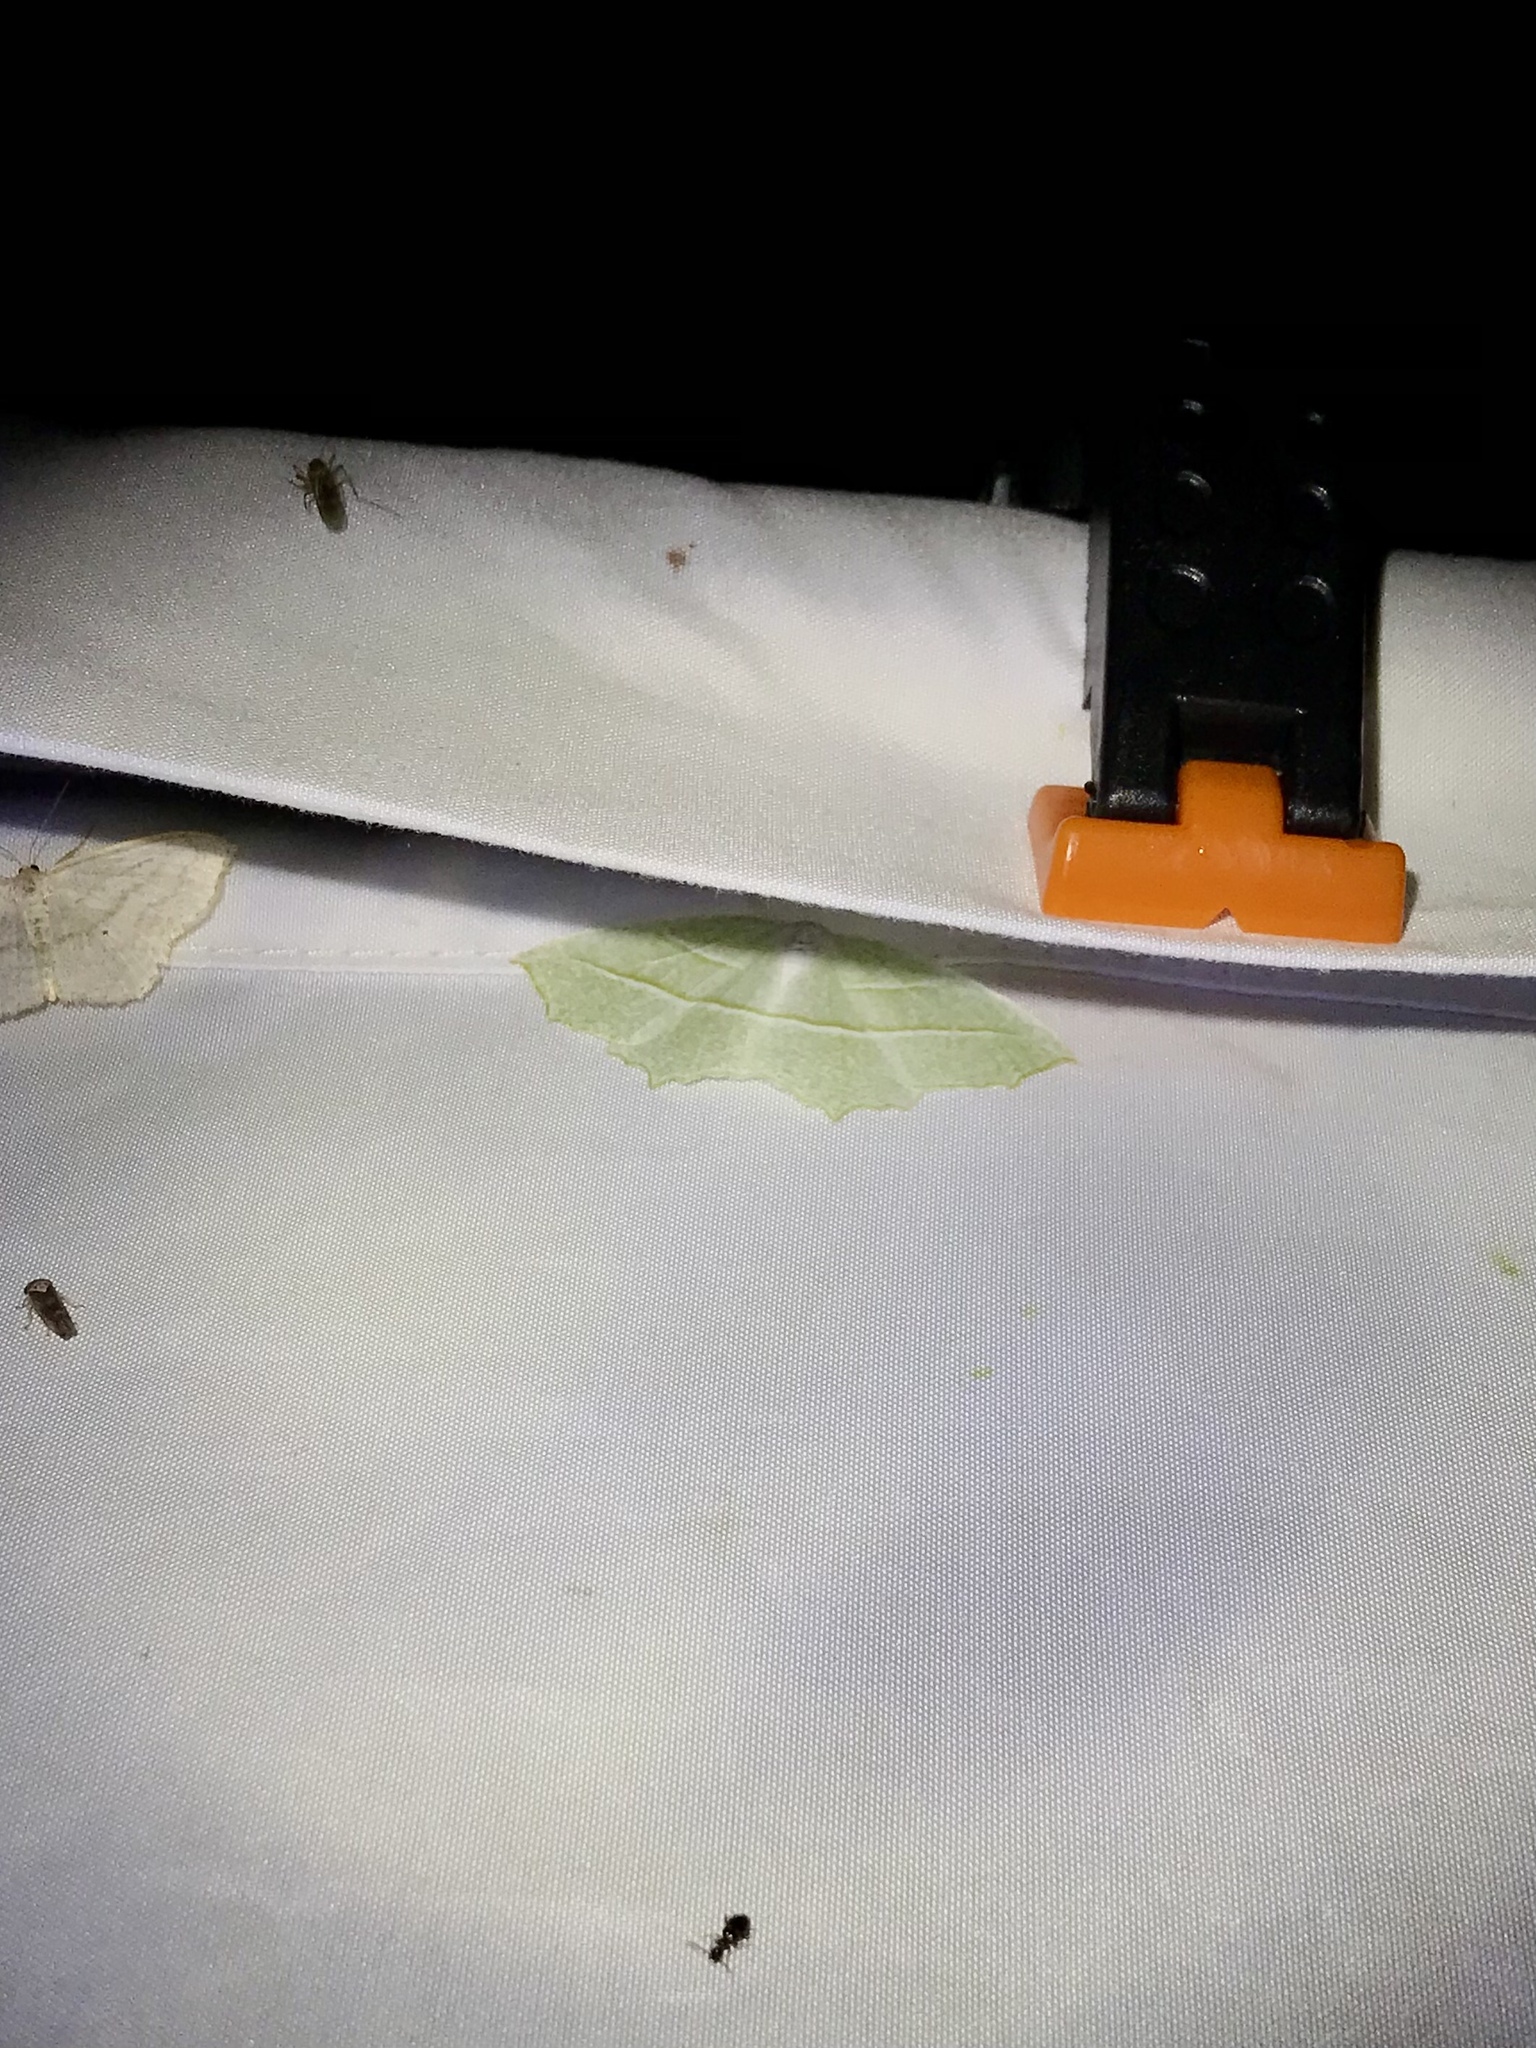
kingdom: Animalia
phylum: Arthropoda
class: Insecta
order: Lepidoptera
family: Geometridae
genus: Campaea
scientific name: Campaea perlata
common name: Fringed looper
